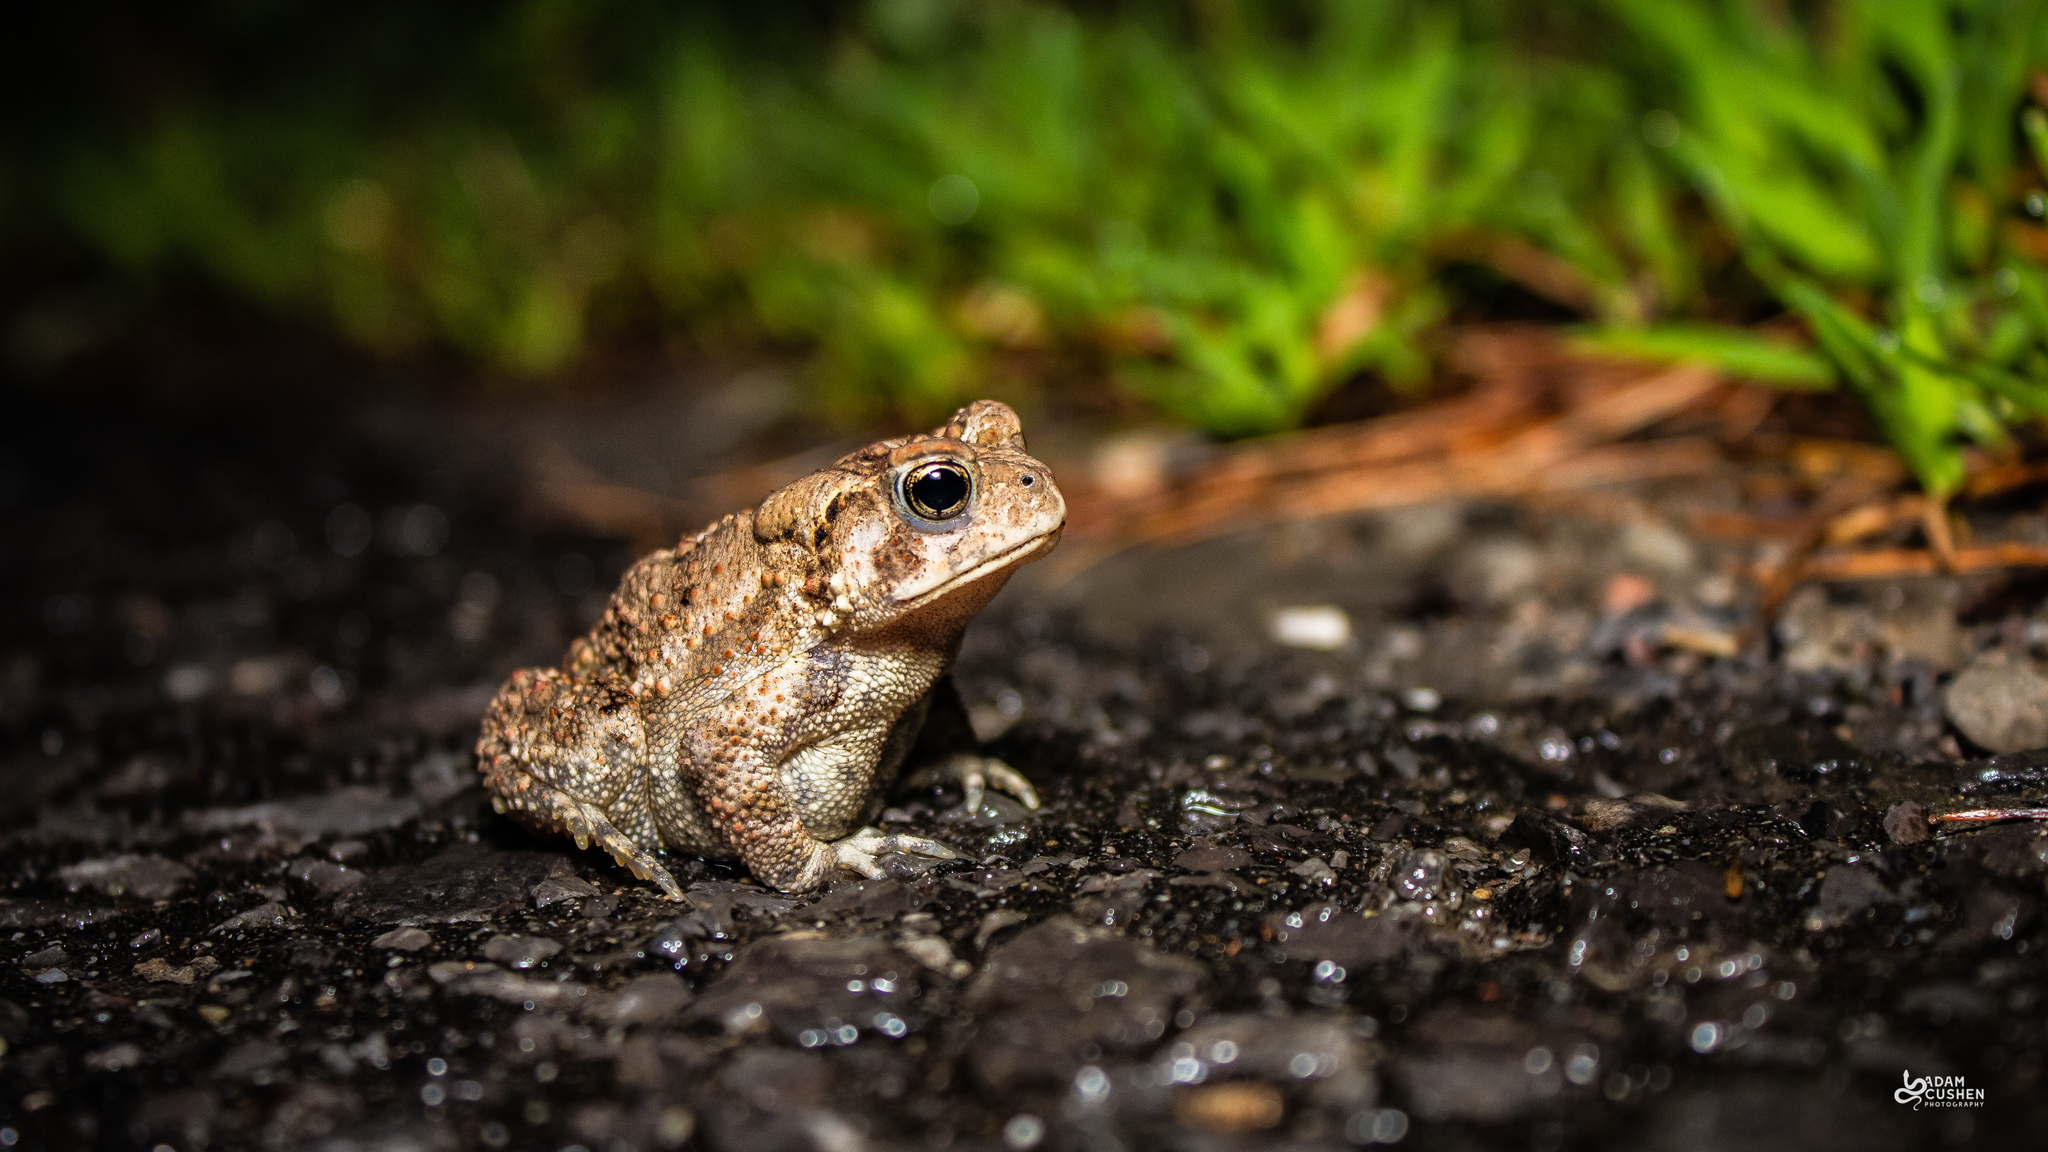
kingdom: Animalia
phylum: Chordata
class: Amphibia
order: Anura
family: Bufonidae
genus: Anaxyrus
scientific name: Anaxyrus americanus
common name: American toad
